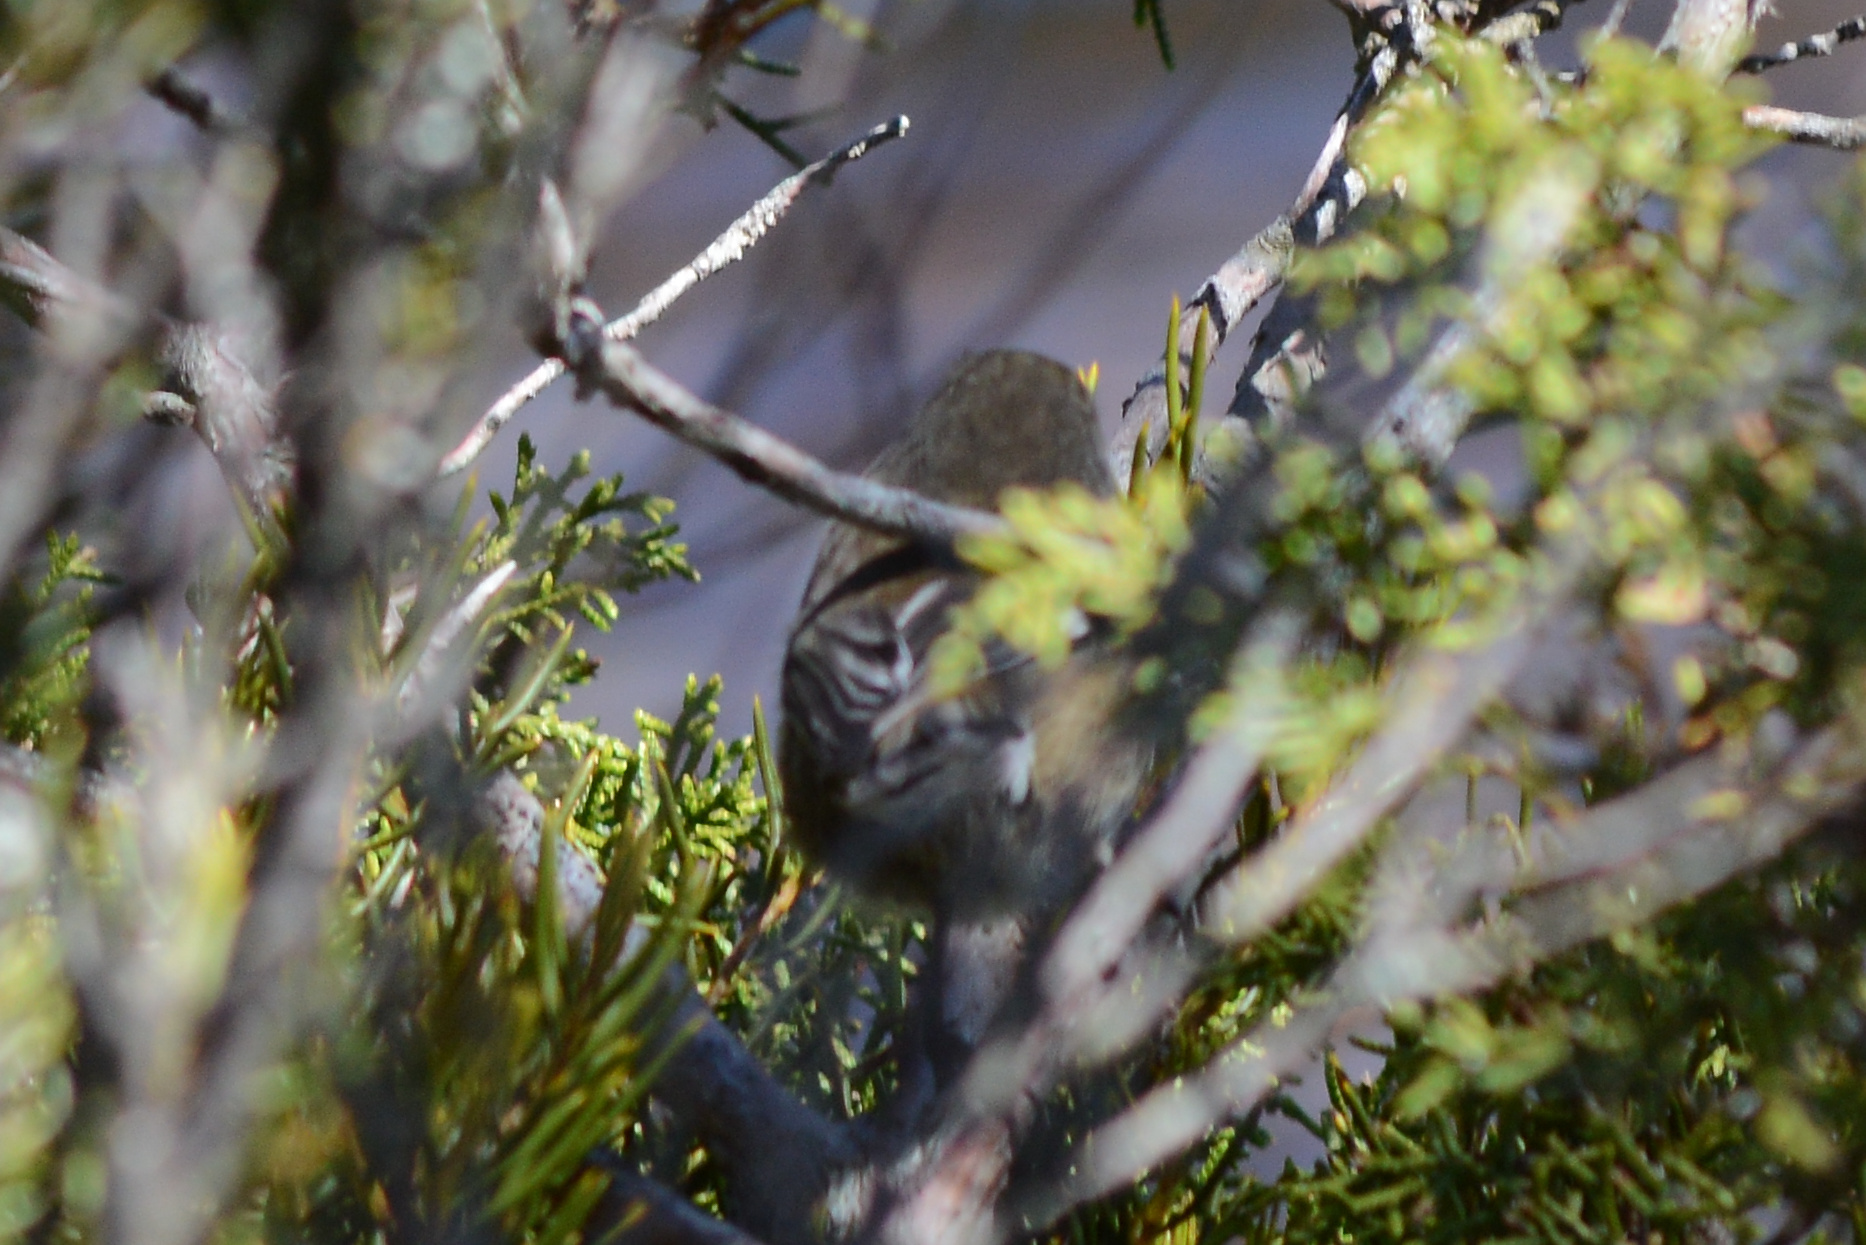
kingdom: Animalia
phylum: Chordata
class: Aves
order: Passeriformes
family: Acanthizidae
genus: Acanthornis
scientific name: Acanthornis magna
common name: Scrubtit
